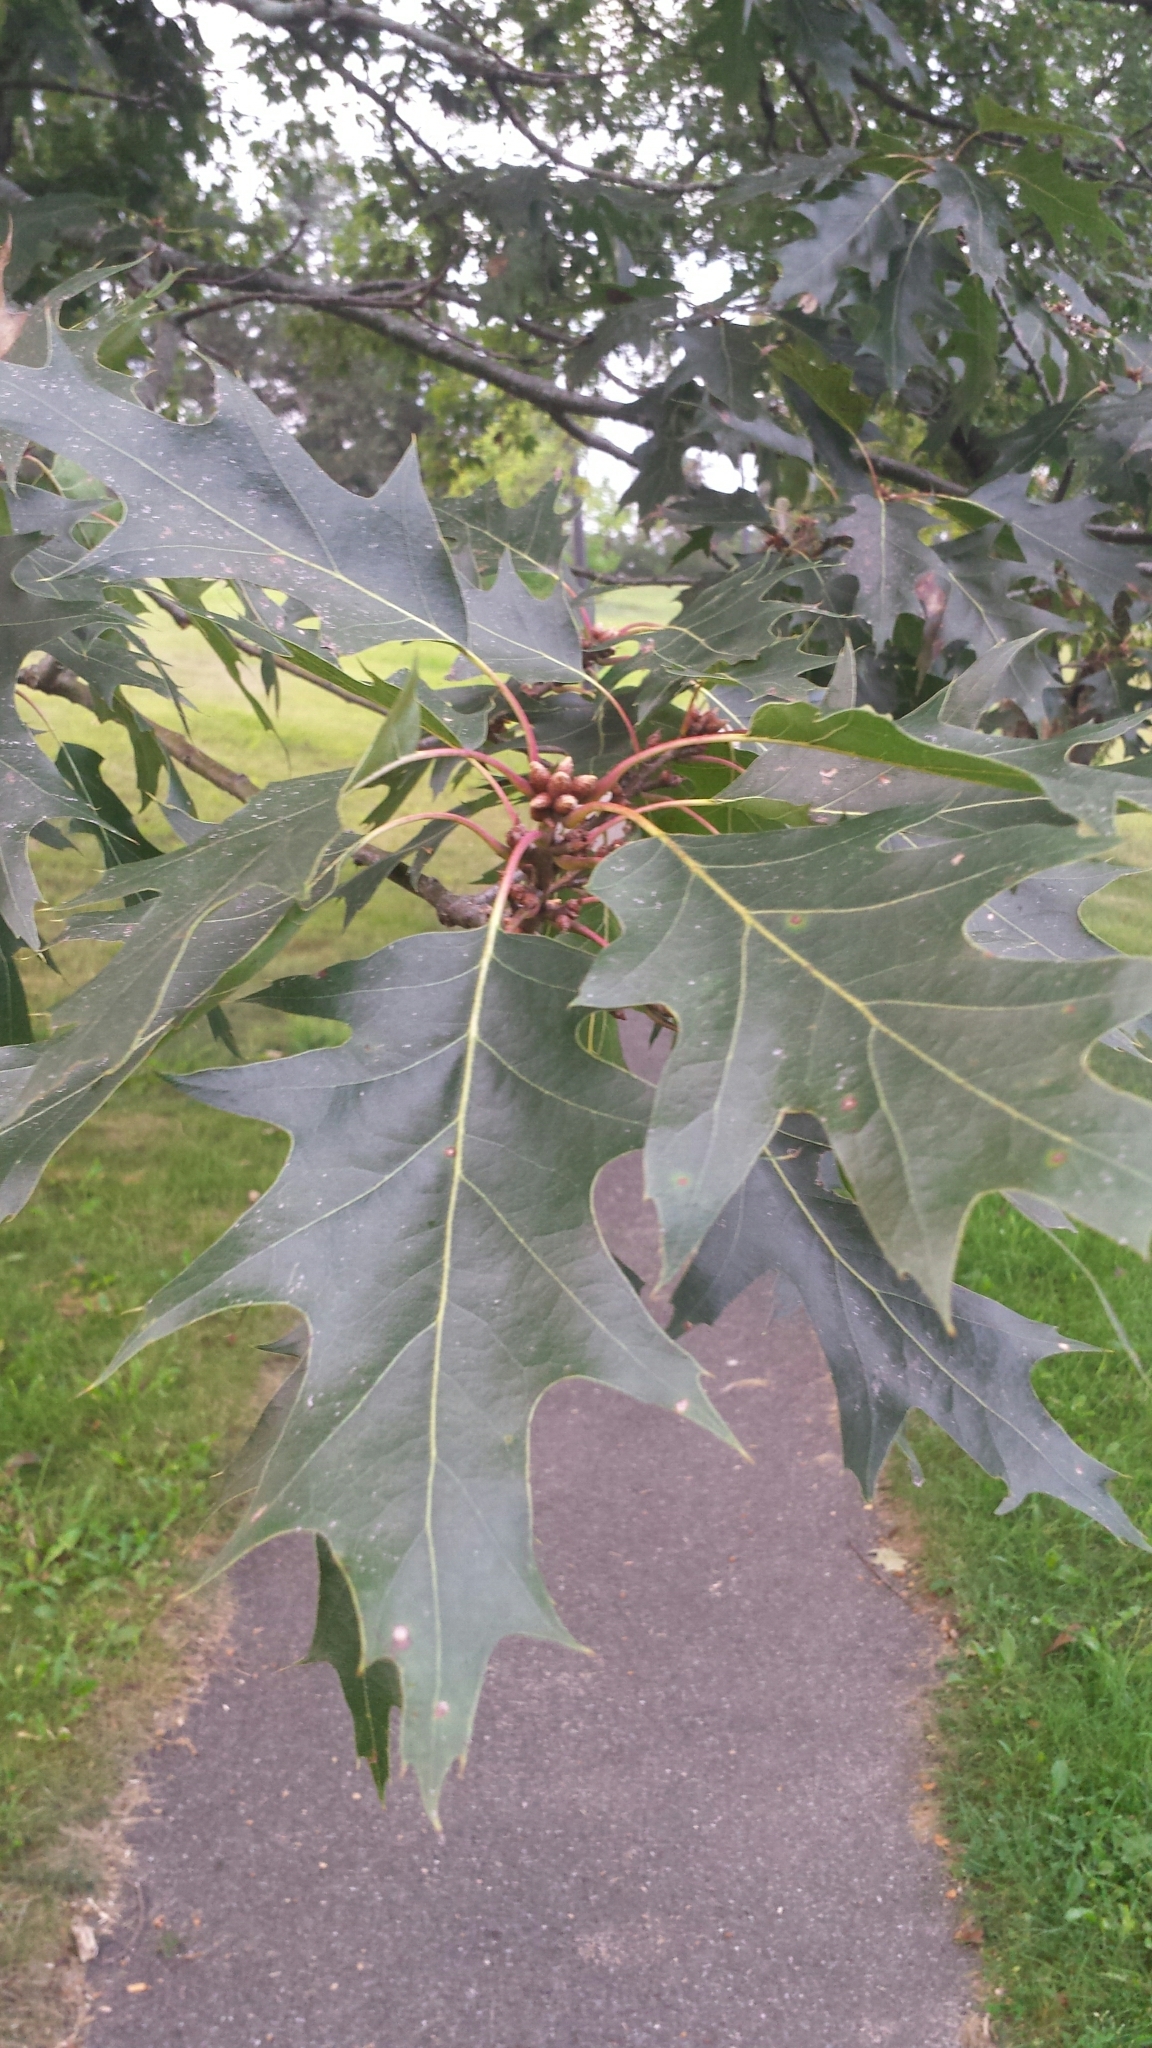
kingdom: Plantae
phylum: Tracheophyta
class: Magnoliopsida
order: Fagales
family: Fagaceae
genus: Quercus
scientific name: Quercus rubra
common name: Red oak
